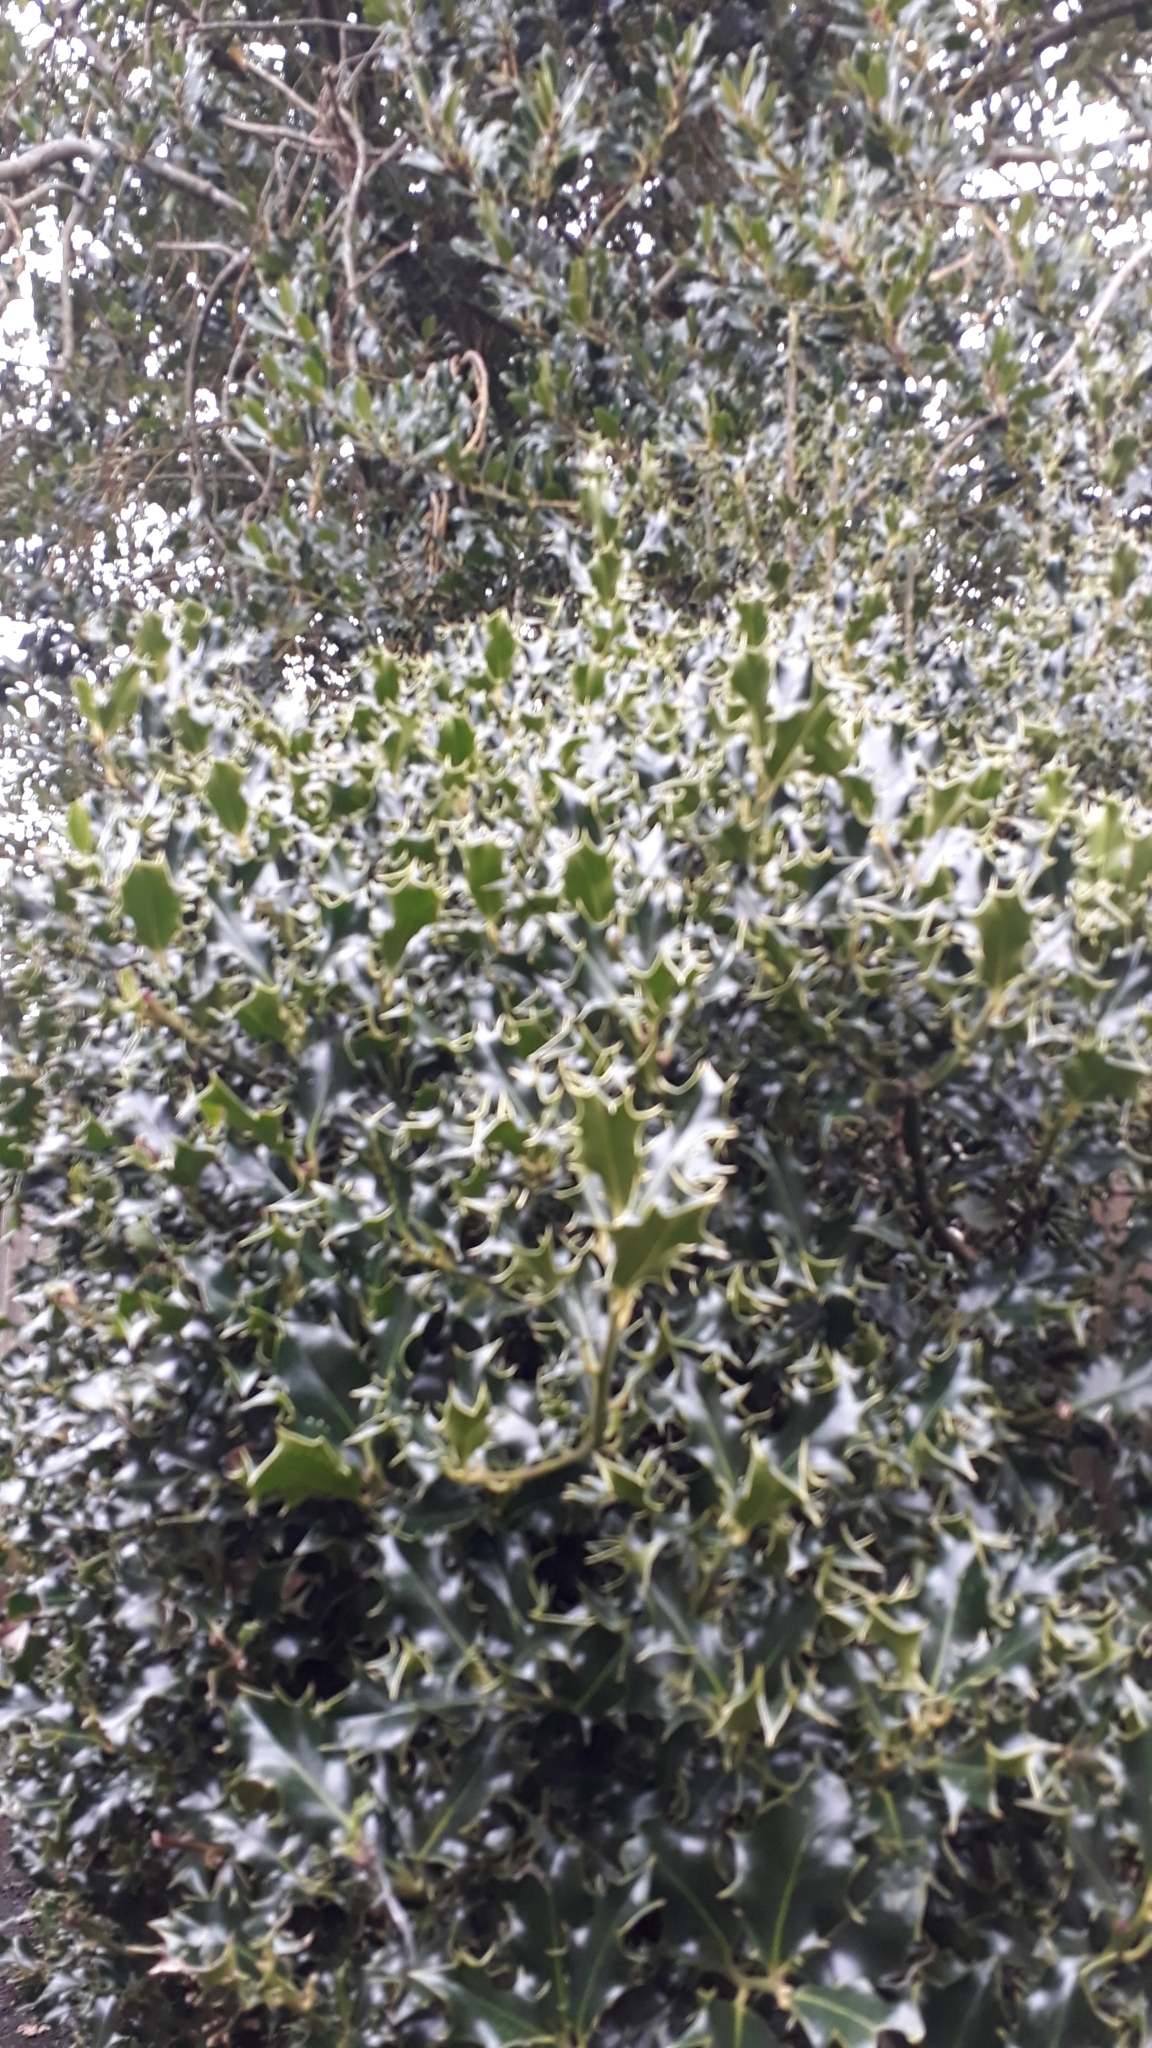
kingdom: Plantae
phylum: Tracheophyta
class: Magnoliopsida
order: Aquifoliales
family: Aquifoliaceae
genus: Ilex
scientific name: Ilex aquifolium
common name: English holly
